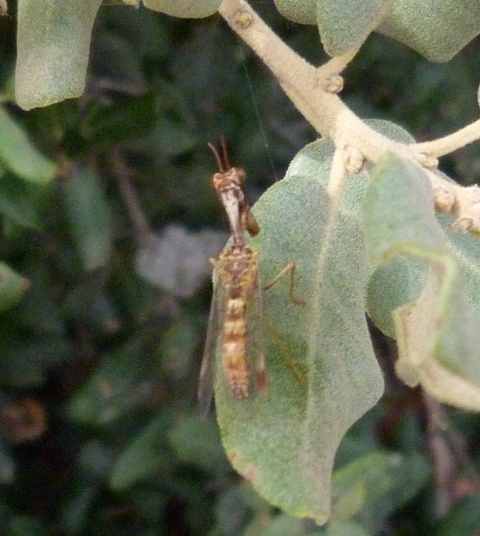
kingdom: Animalia
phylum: Arthropoda
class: Insecta
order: Neuroptera
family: Mantispidae
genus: Mantispa
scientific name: Mantispa styriaca
